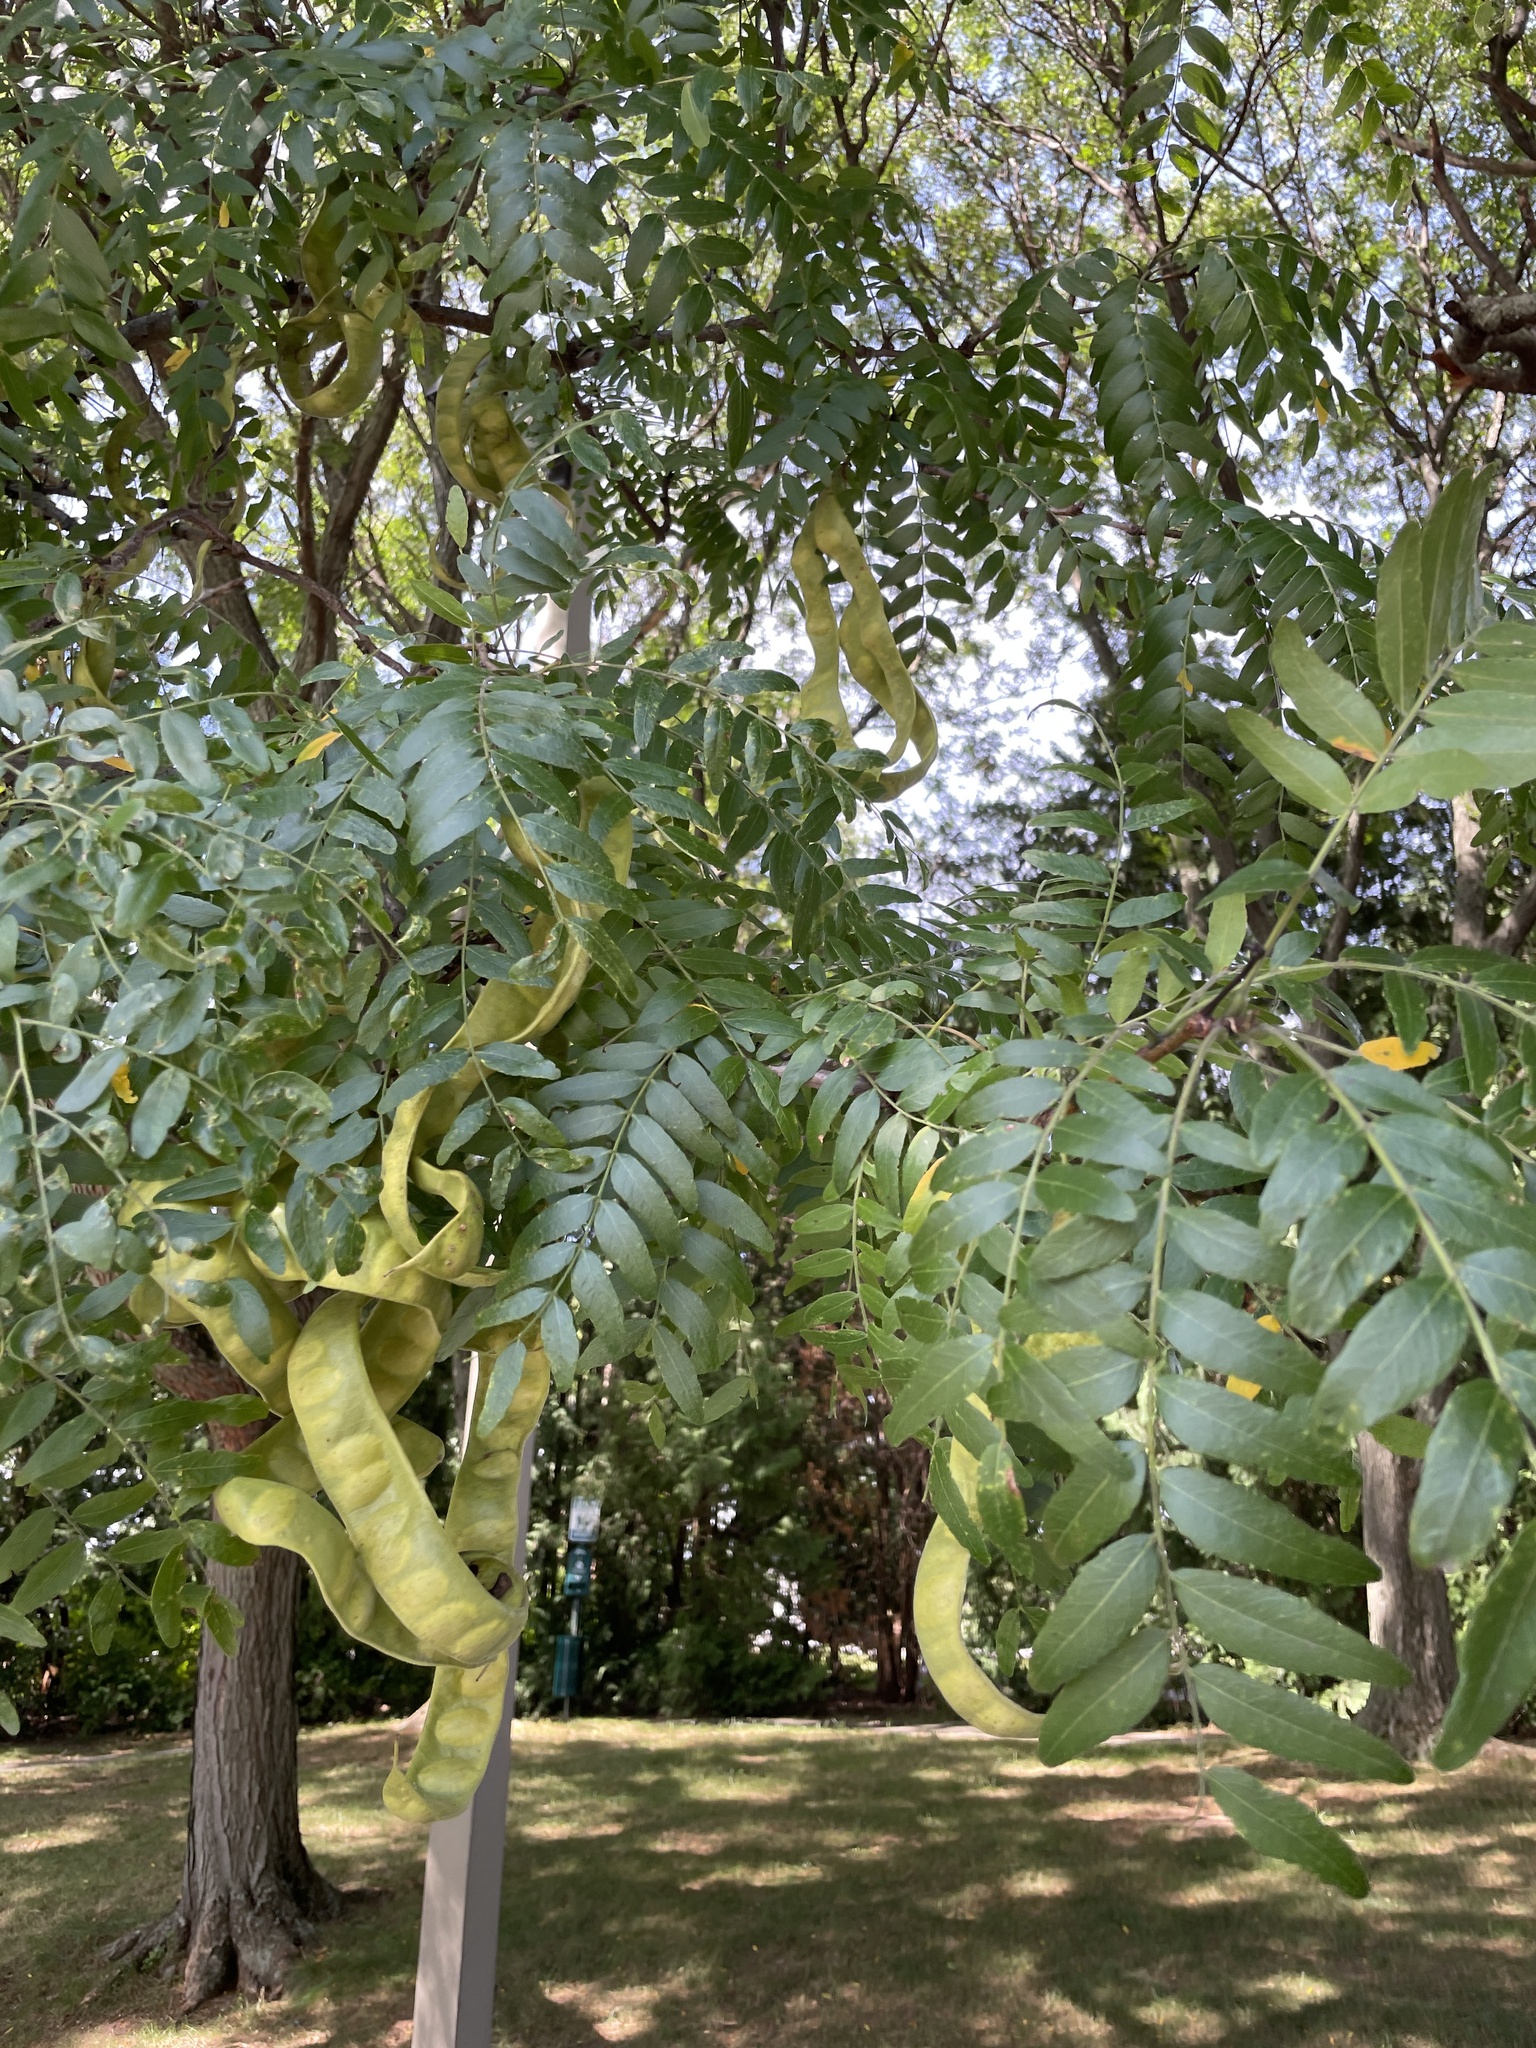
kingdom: Plantae
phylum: Tracheophyta
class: Magnoliopsida
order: Fabales
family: Fabaceae
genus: Gleditsia
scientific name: Gleditsia triacanthos
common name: Common honeylocust
